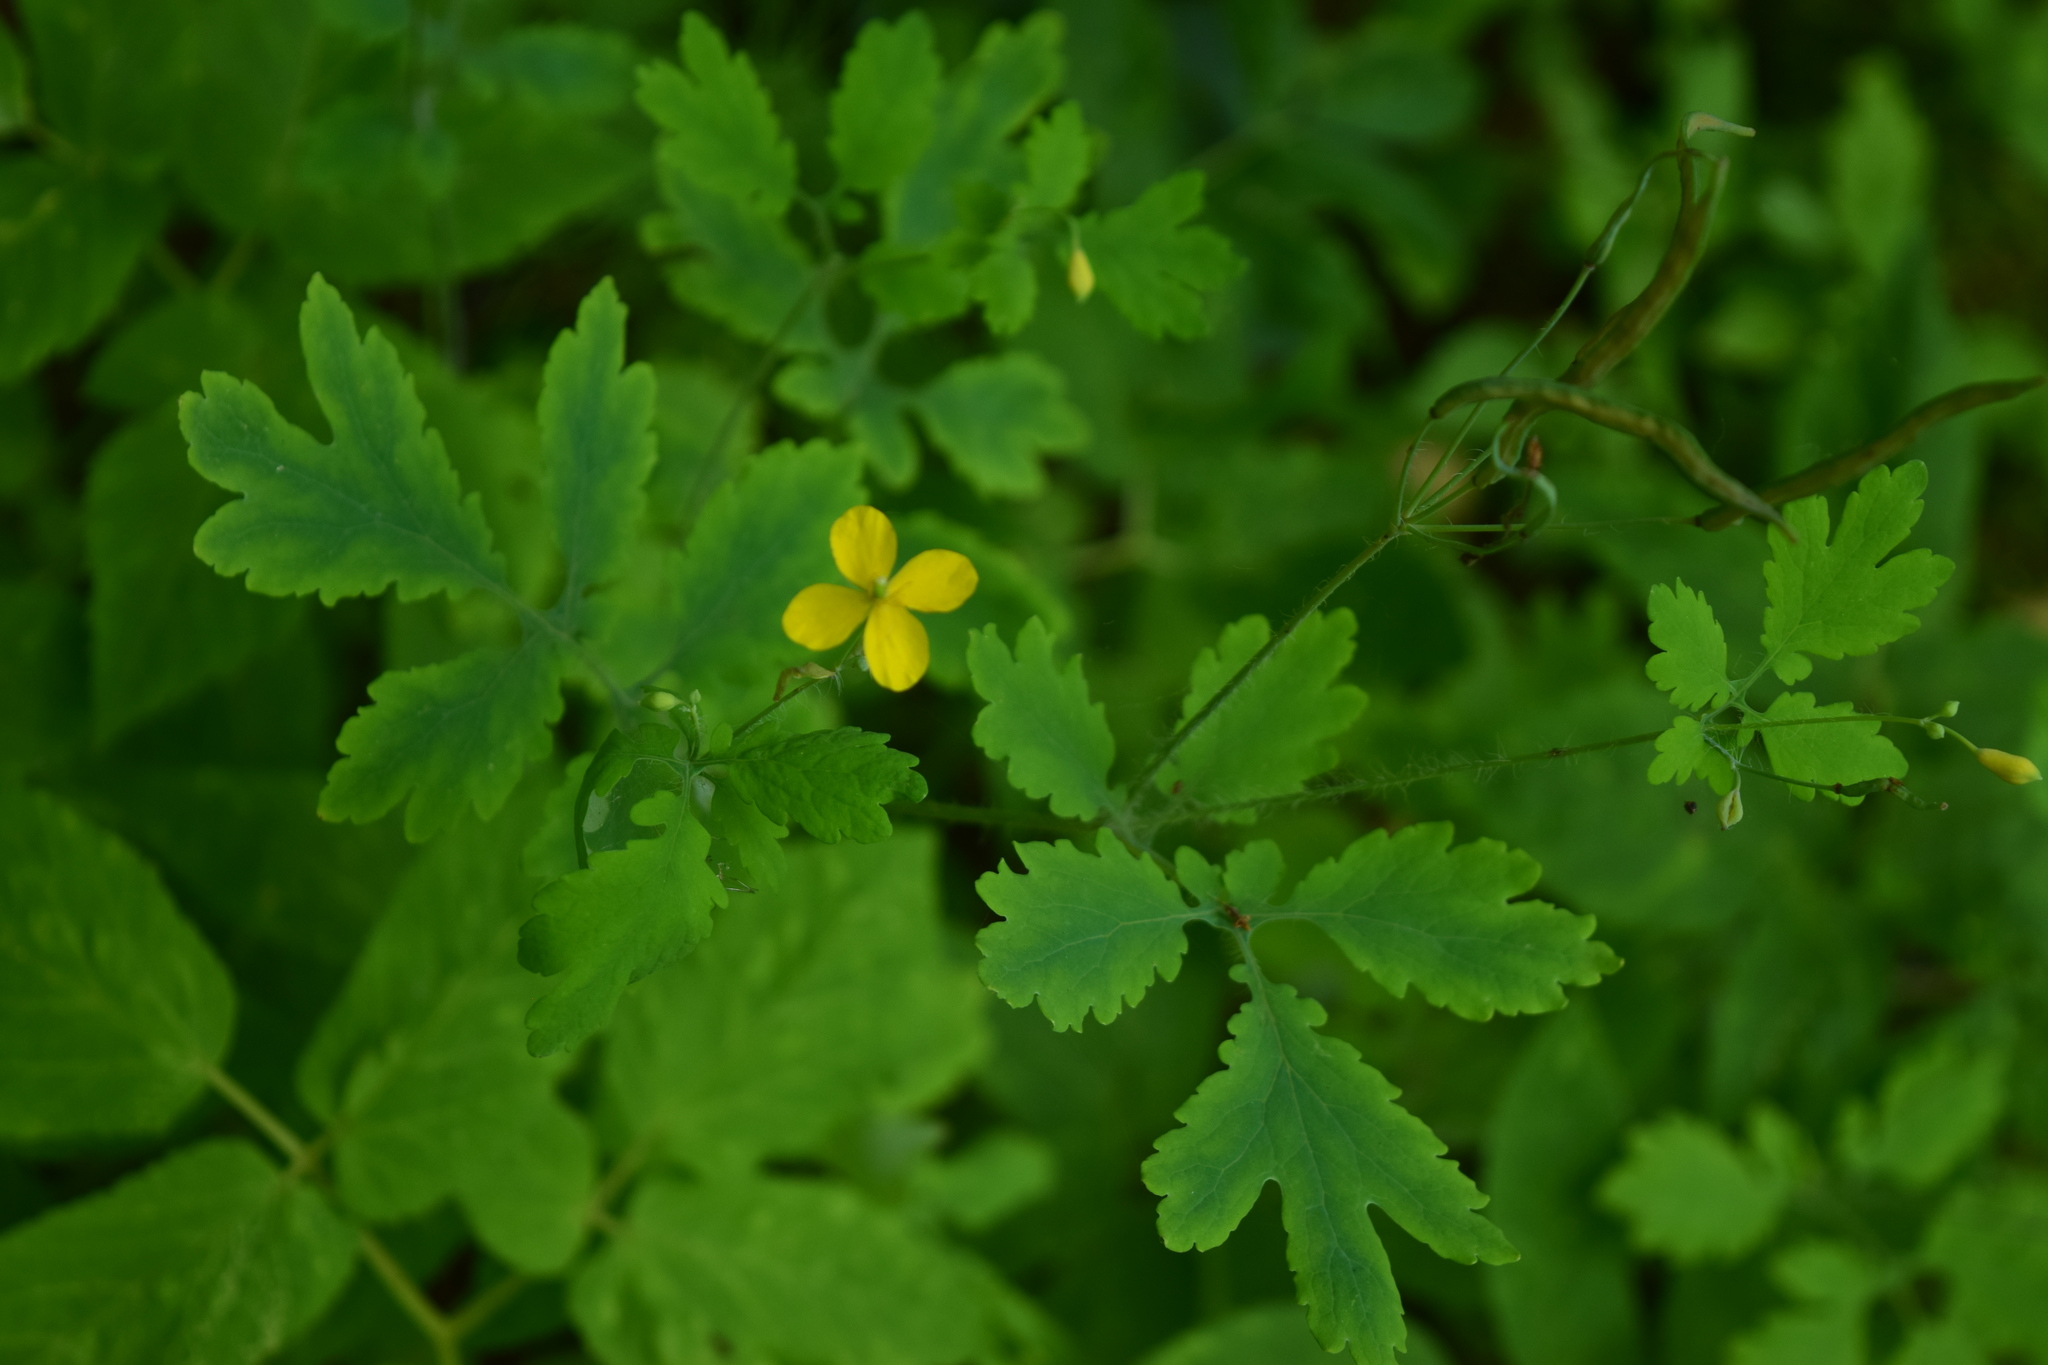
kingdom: Plantae
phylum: Tracheophyta
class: Magnoliopsida
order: Ranunculales
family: Papaveraceae
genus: Chelidonium
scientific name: Chelidonium majus
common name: Greater celandine
